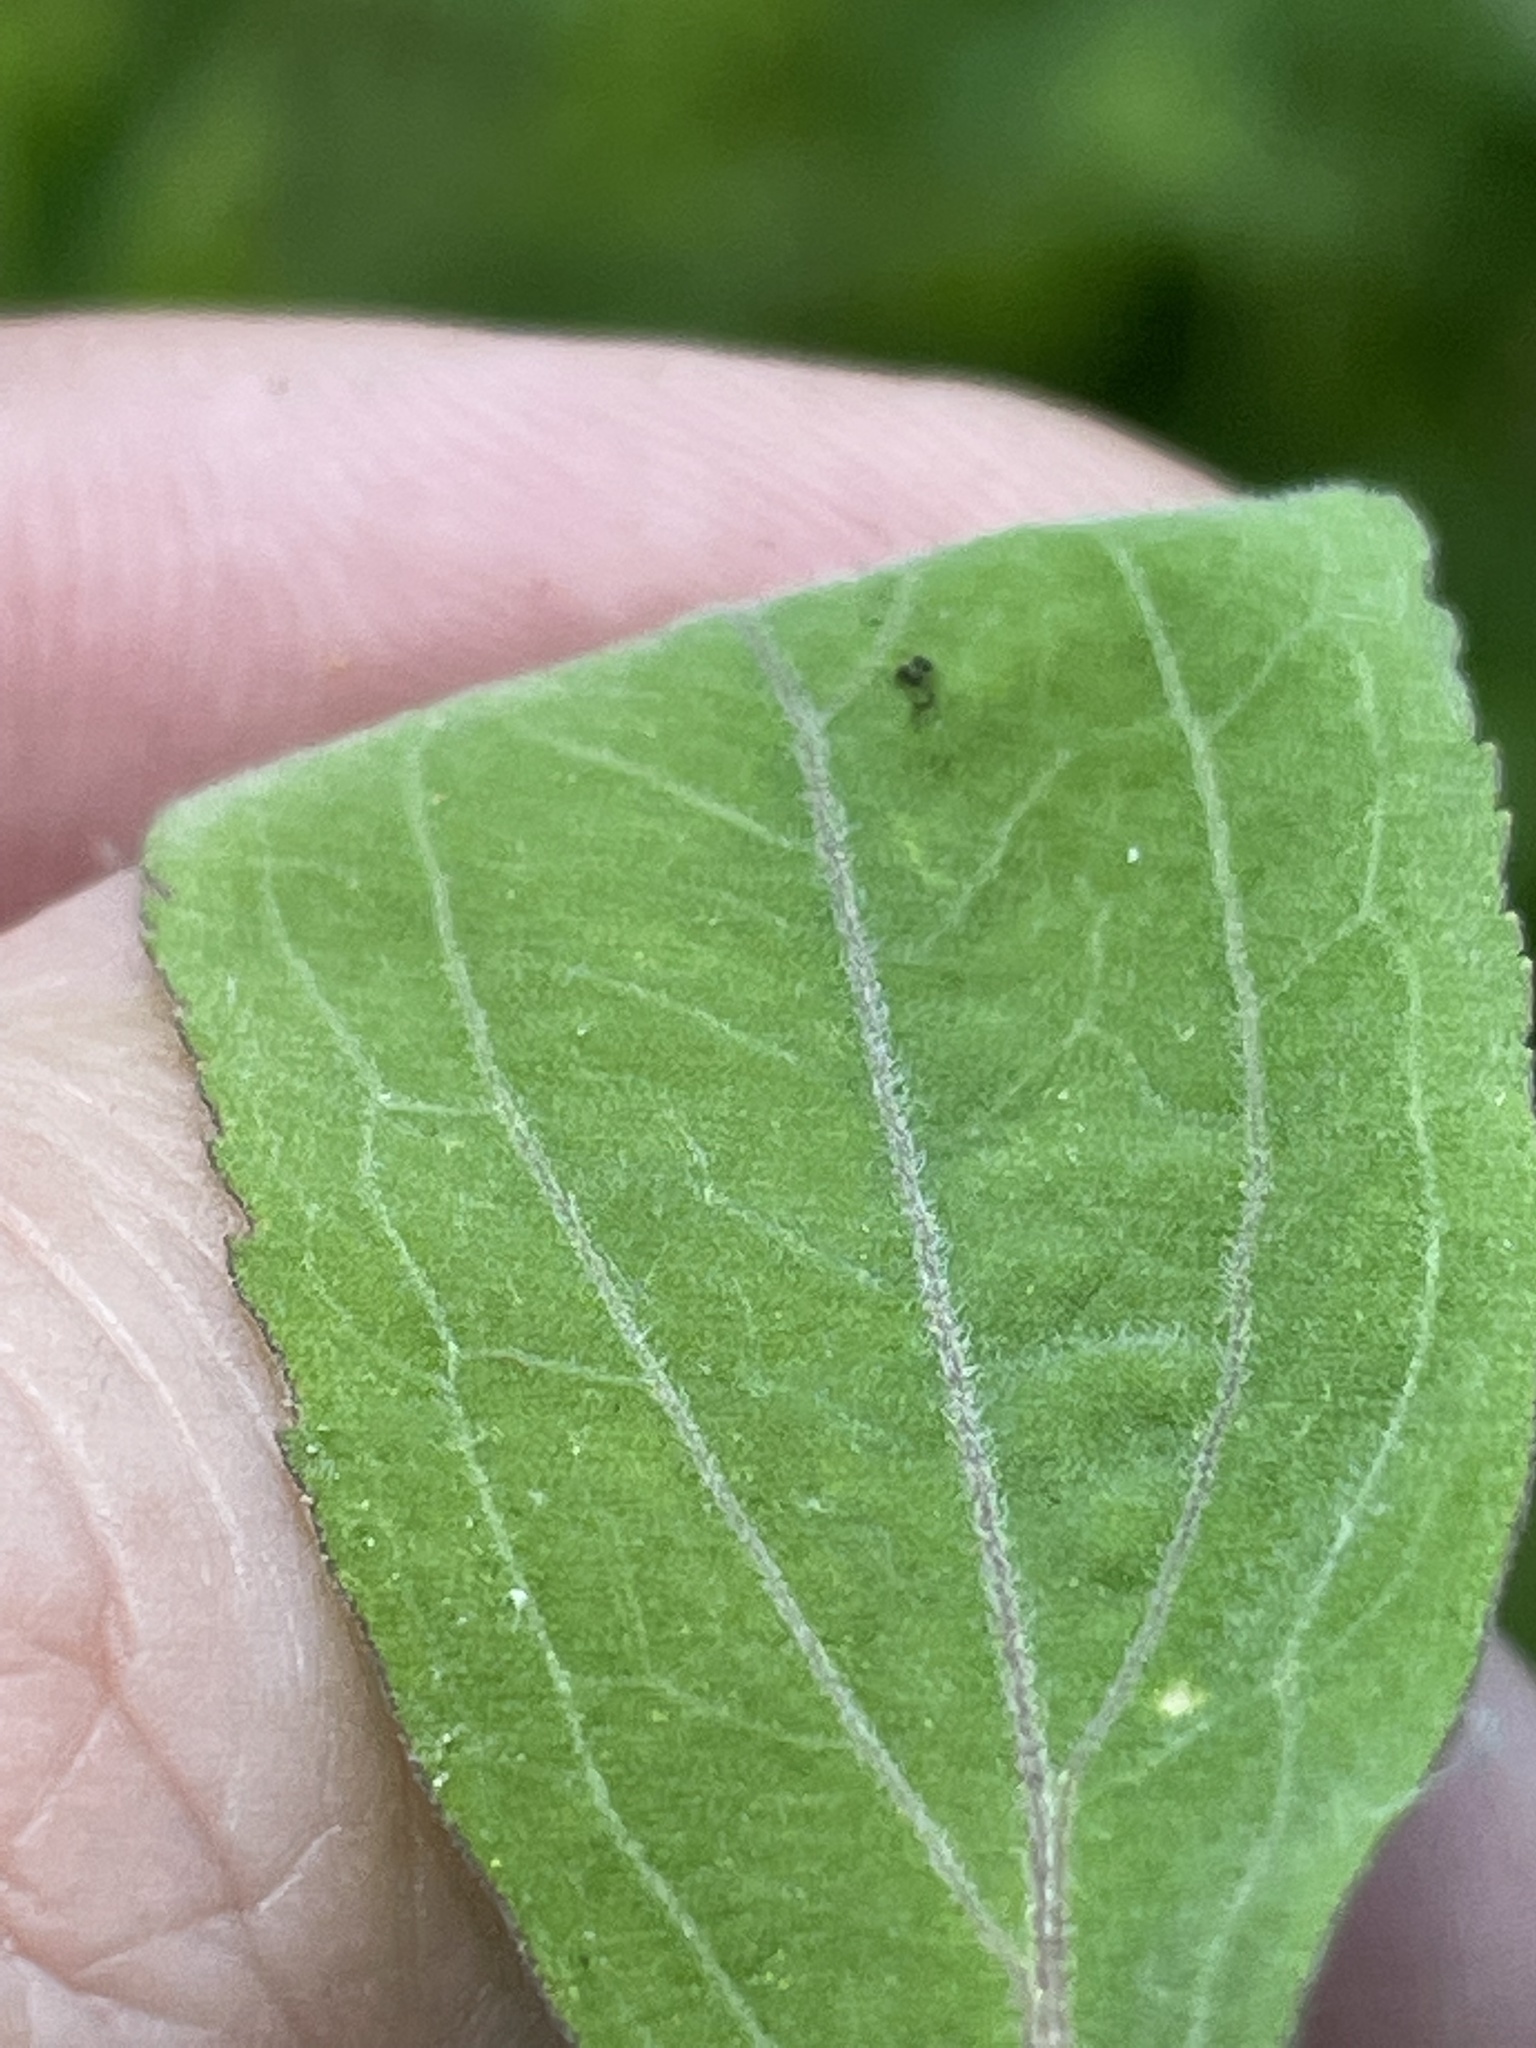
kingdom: Plantae
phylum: Tracheophyta
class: Magnoliopsida
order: Asterales
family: Asteraceae
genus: Eupatorium
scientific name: Eupatorium semiserratum
